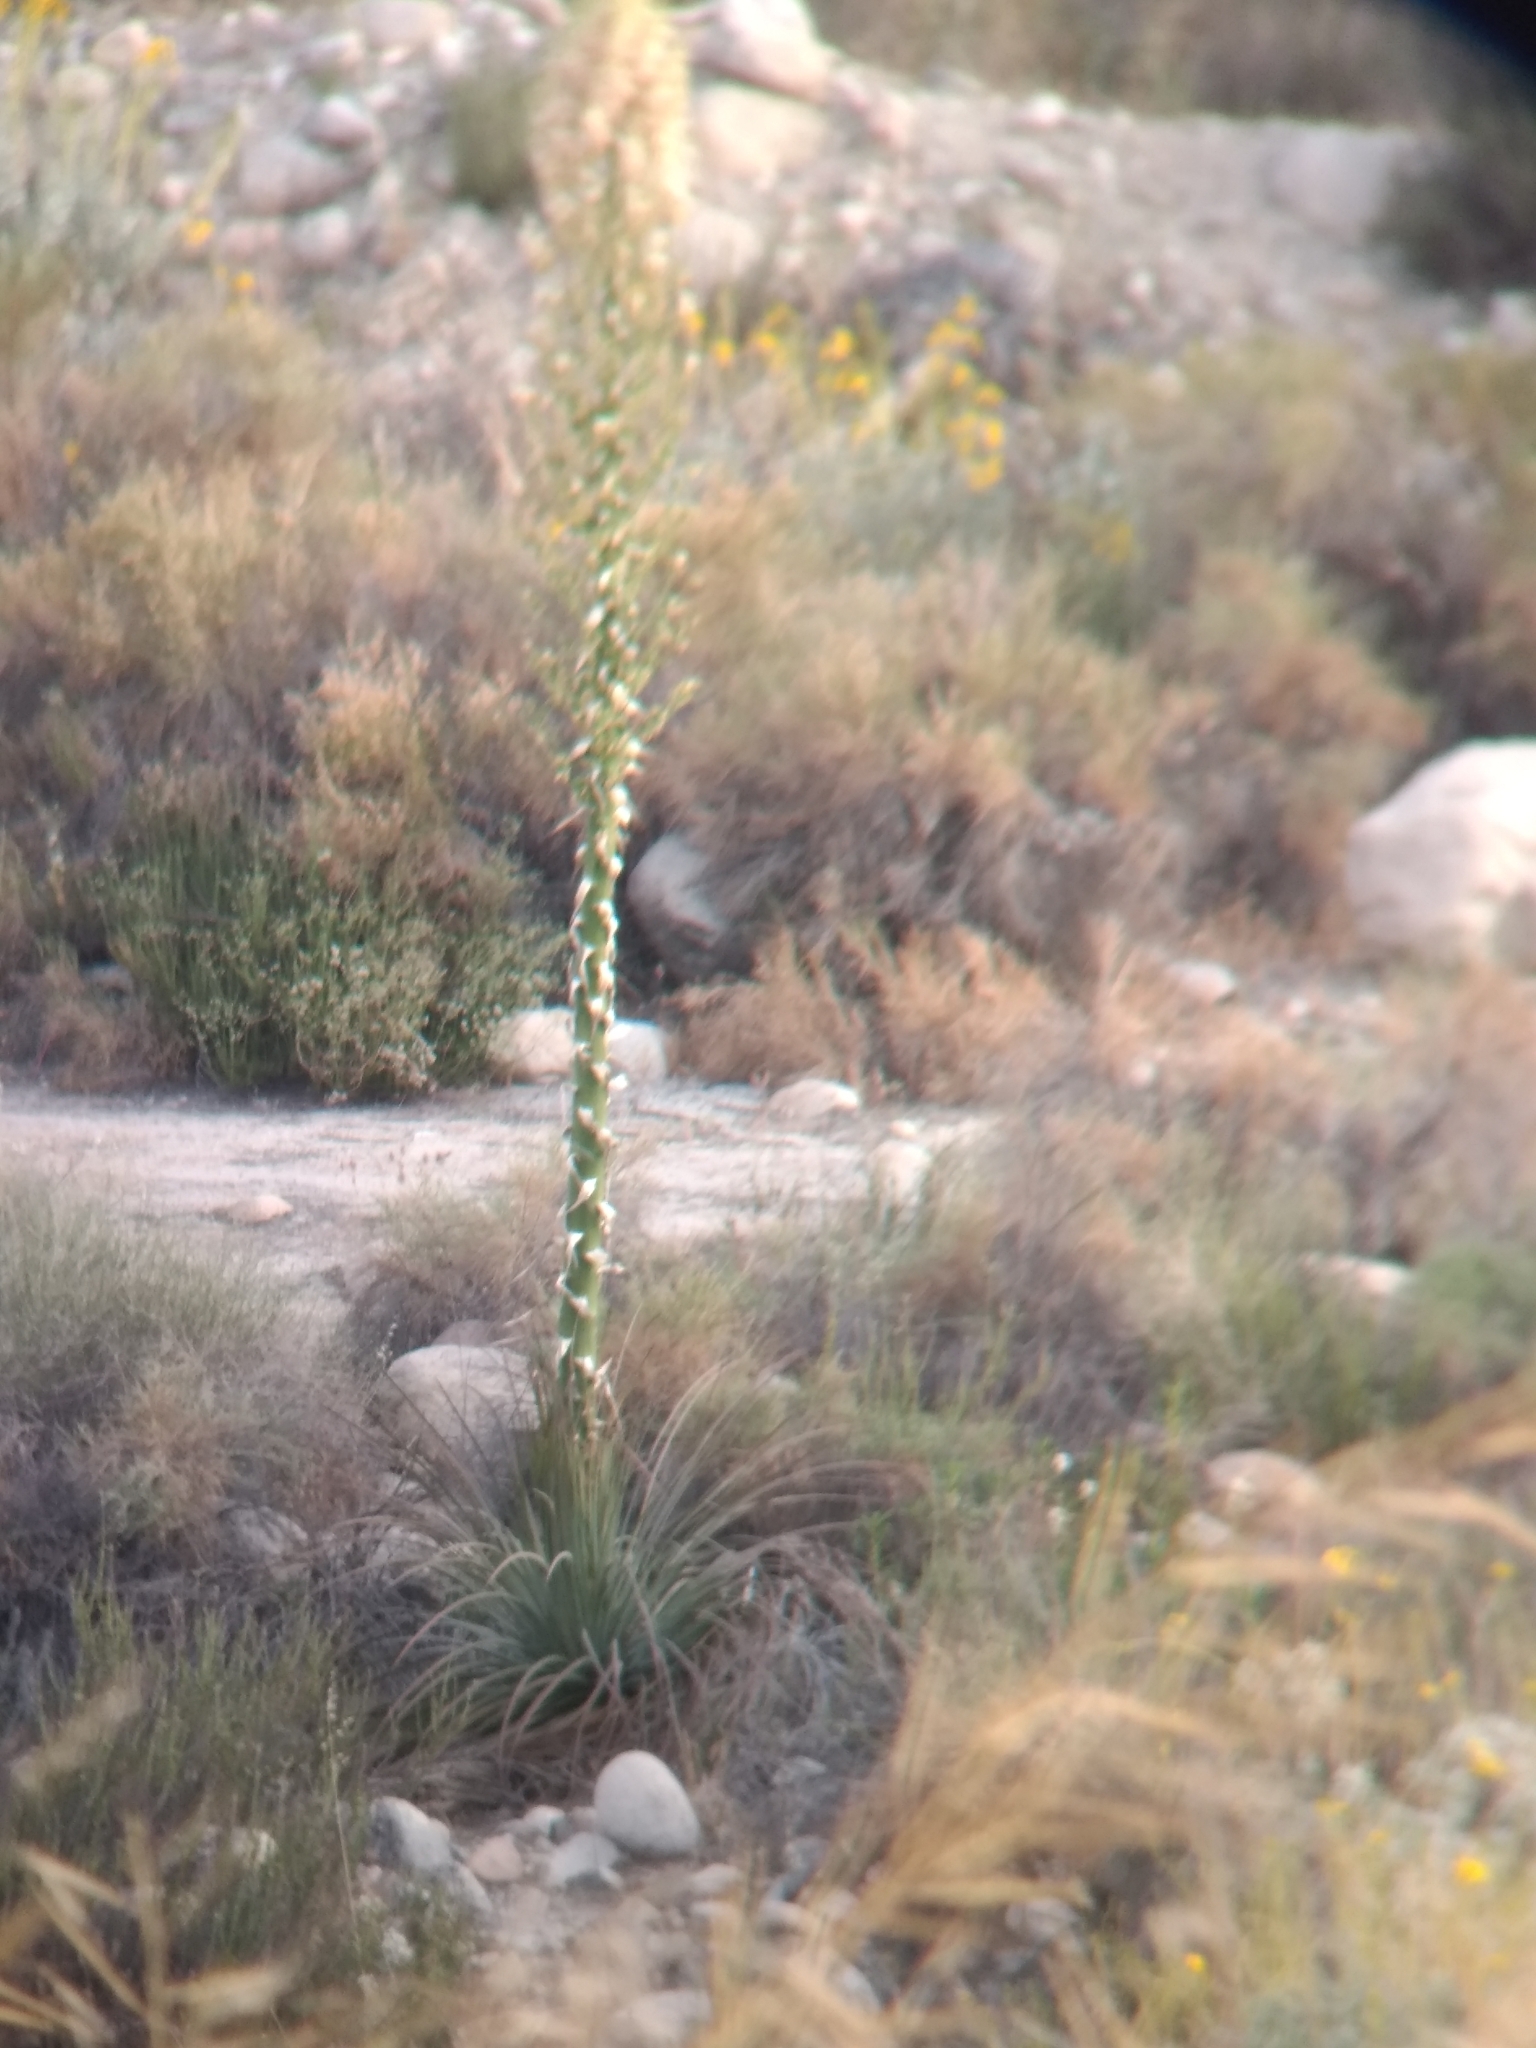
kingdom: Plantae
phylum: Tracheophyta
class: Liliopsida
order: Asparagales
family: Asparagaceae
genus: Hesperoyucca
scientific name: Hesperoyucca whipplei
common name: Our lord's-candle
